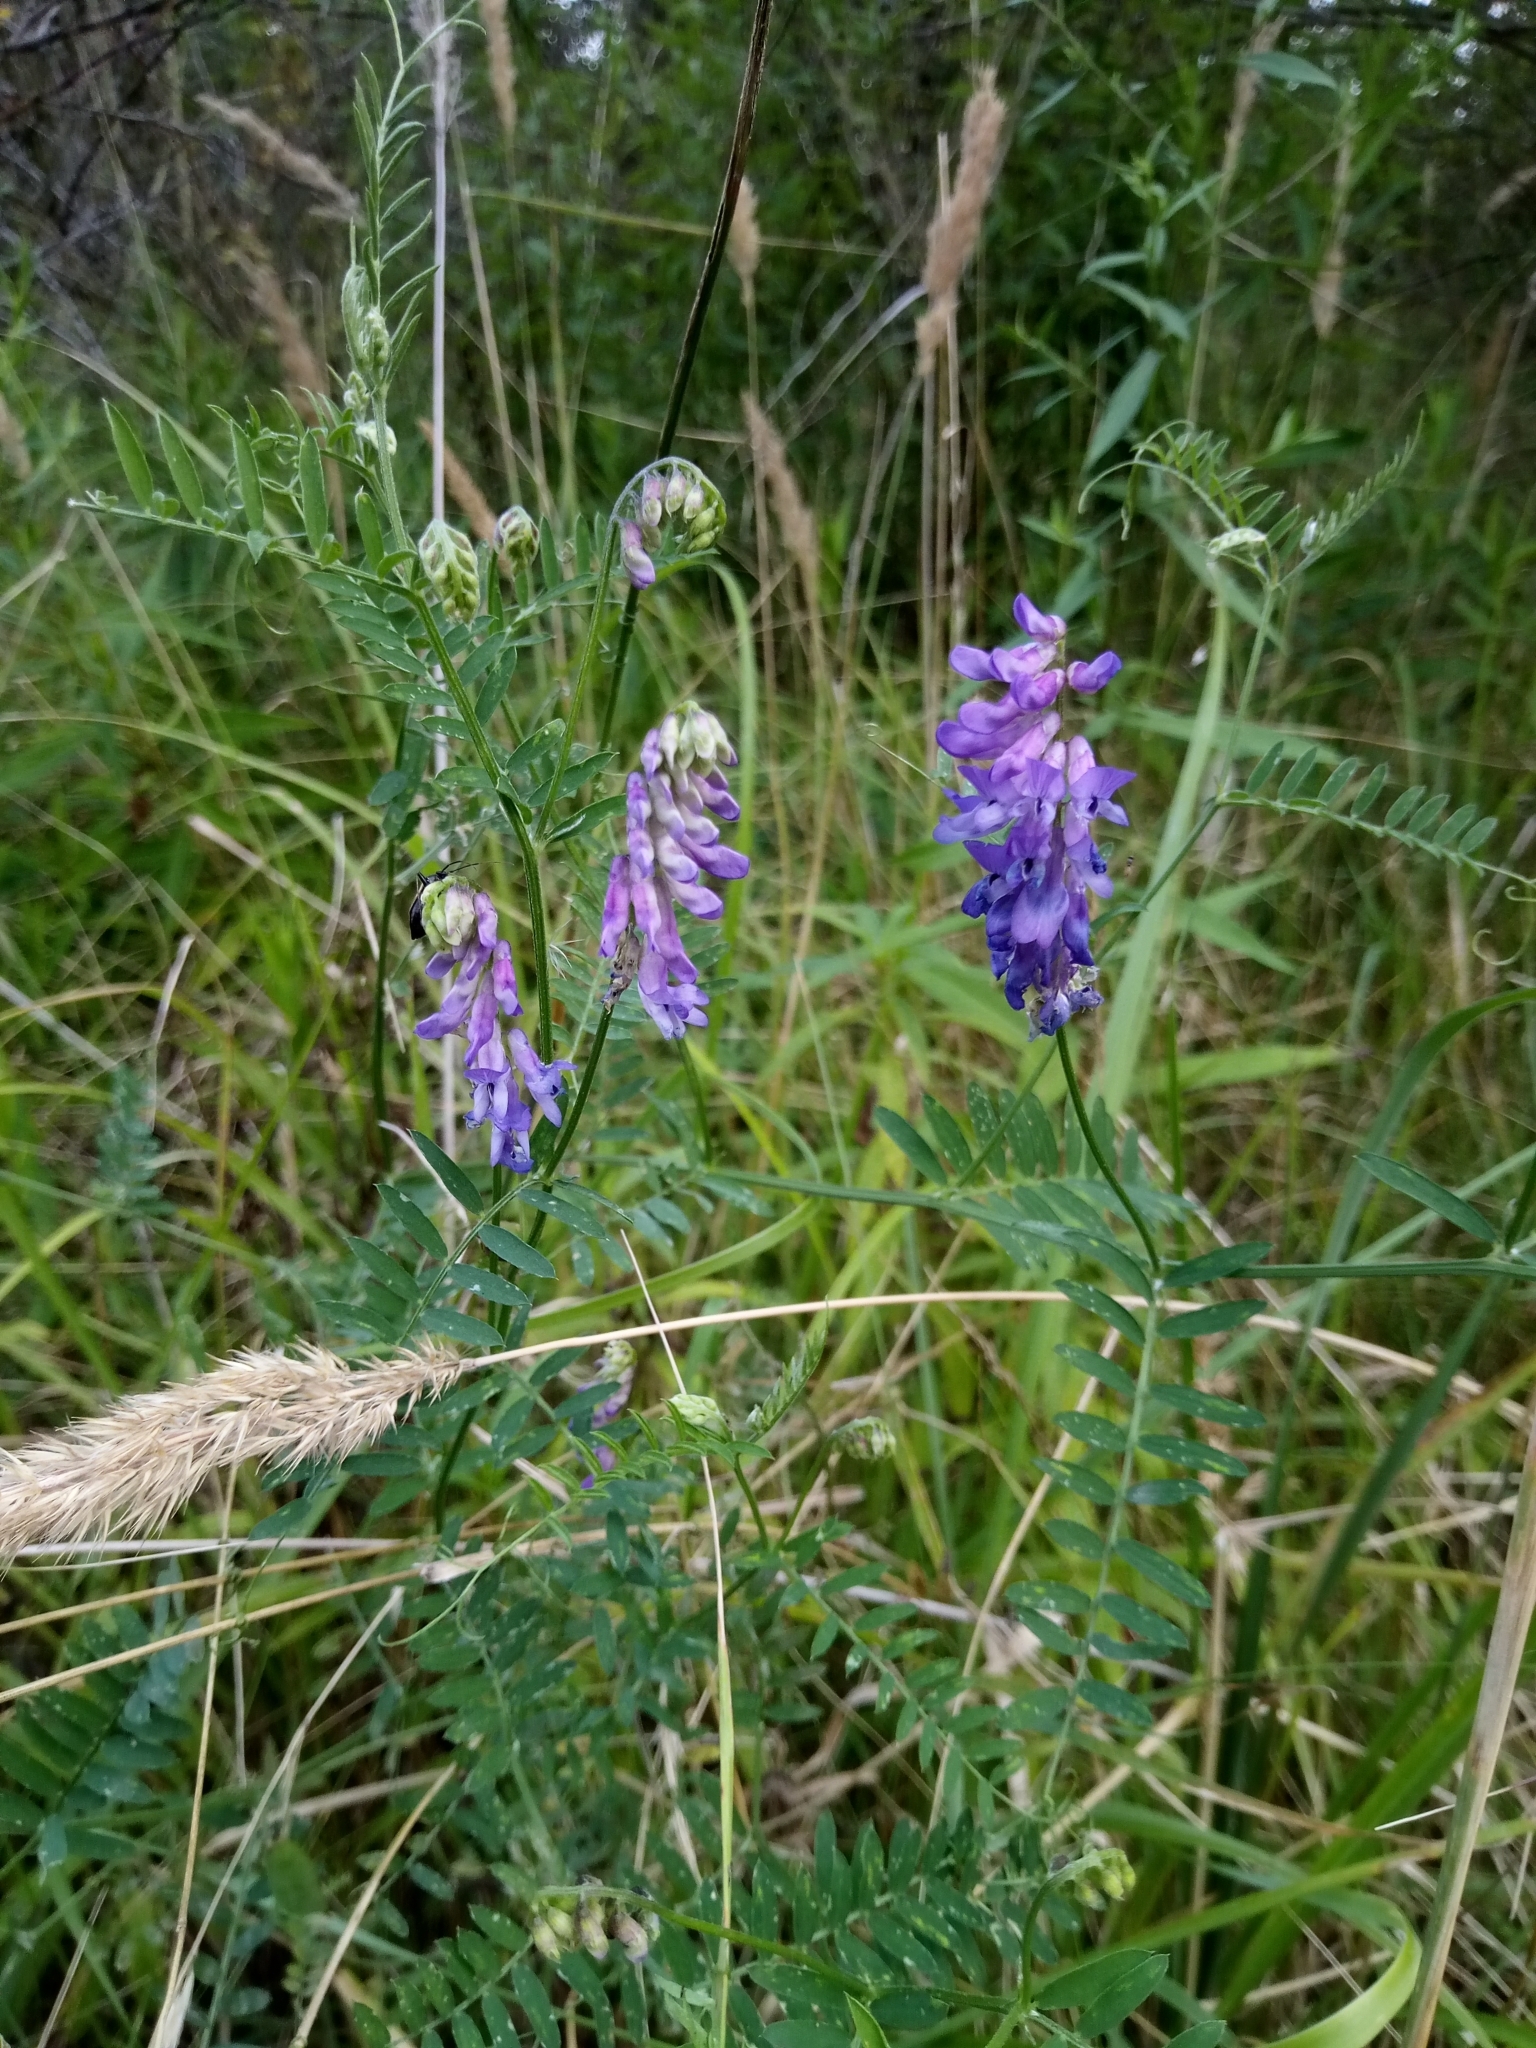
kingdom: Plantae
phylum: Tracheophyta
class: Magnoliopsida
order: Fabales
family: Fabaceae
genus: Vicia
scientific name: Vicia cracca
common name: Bird vetch
